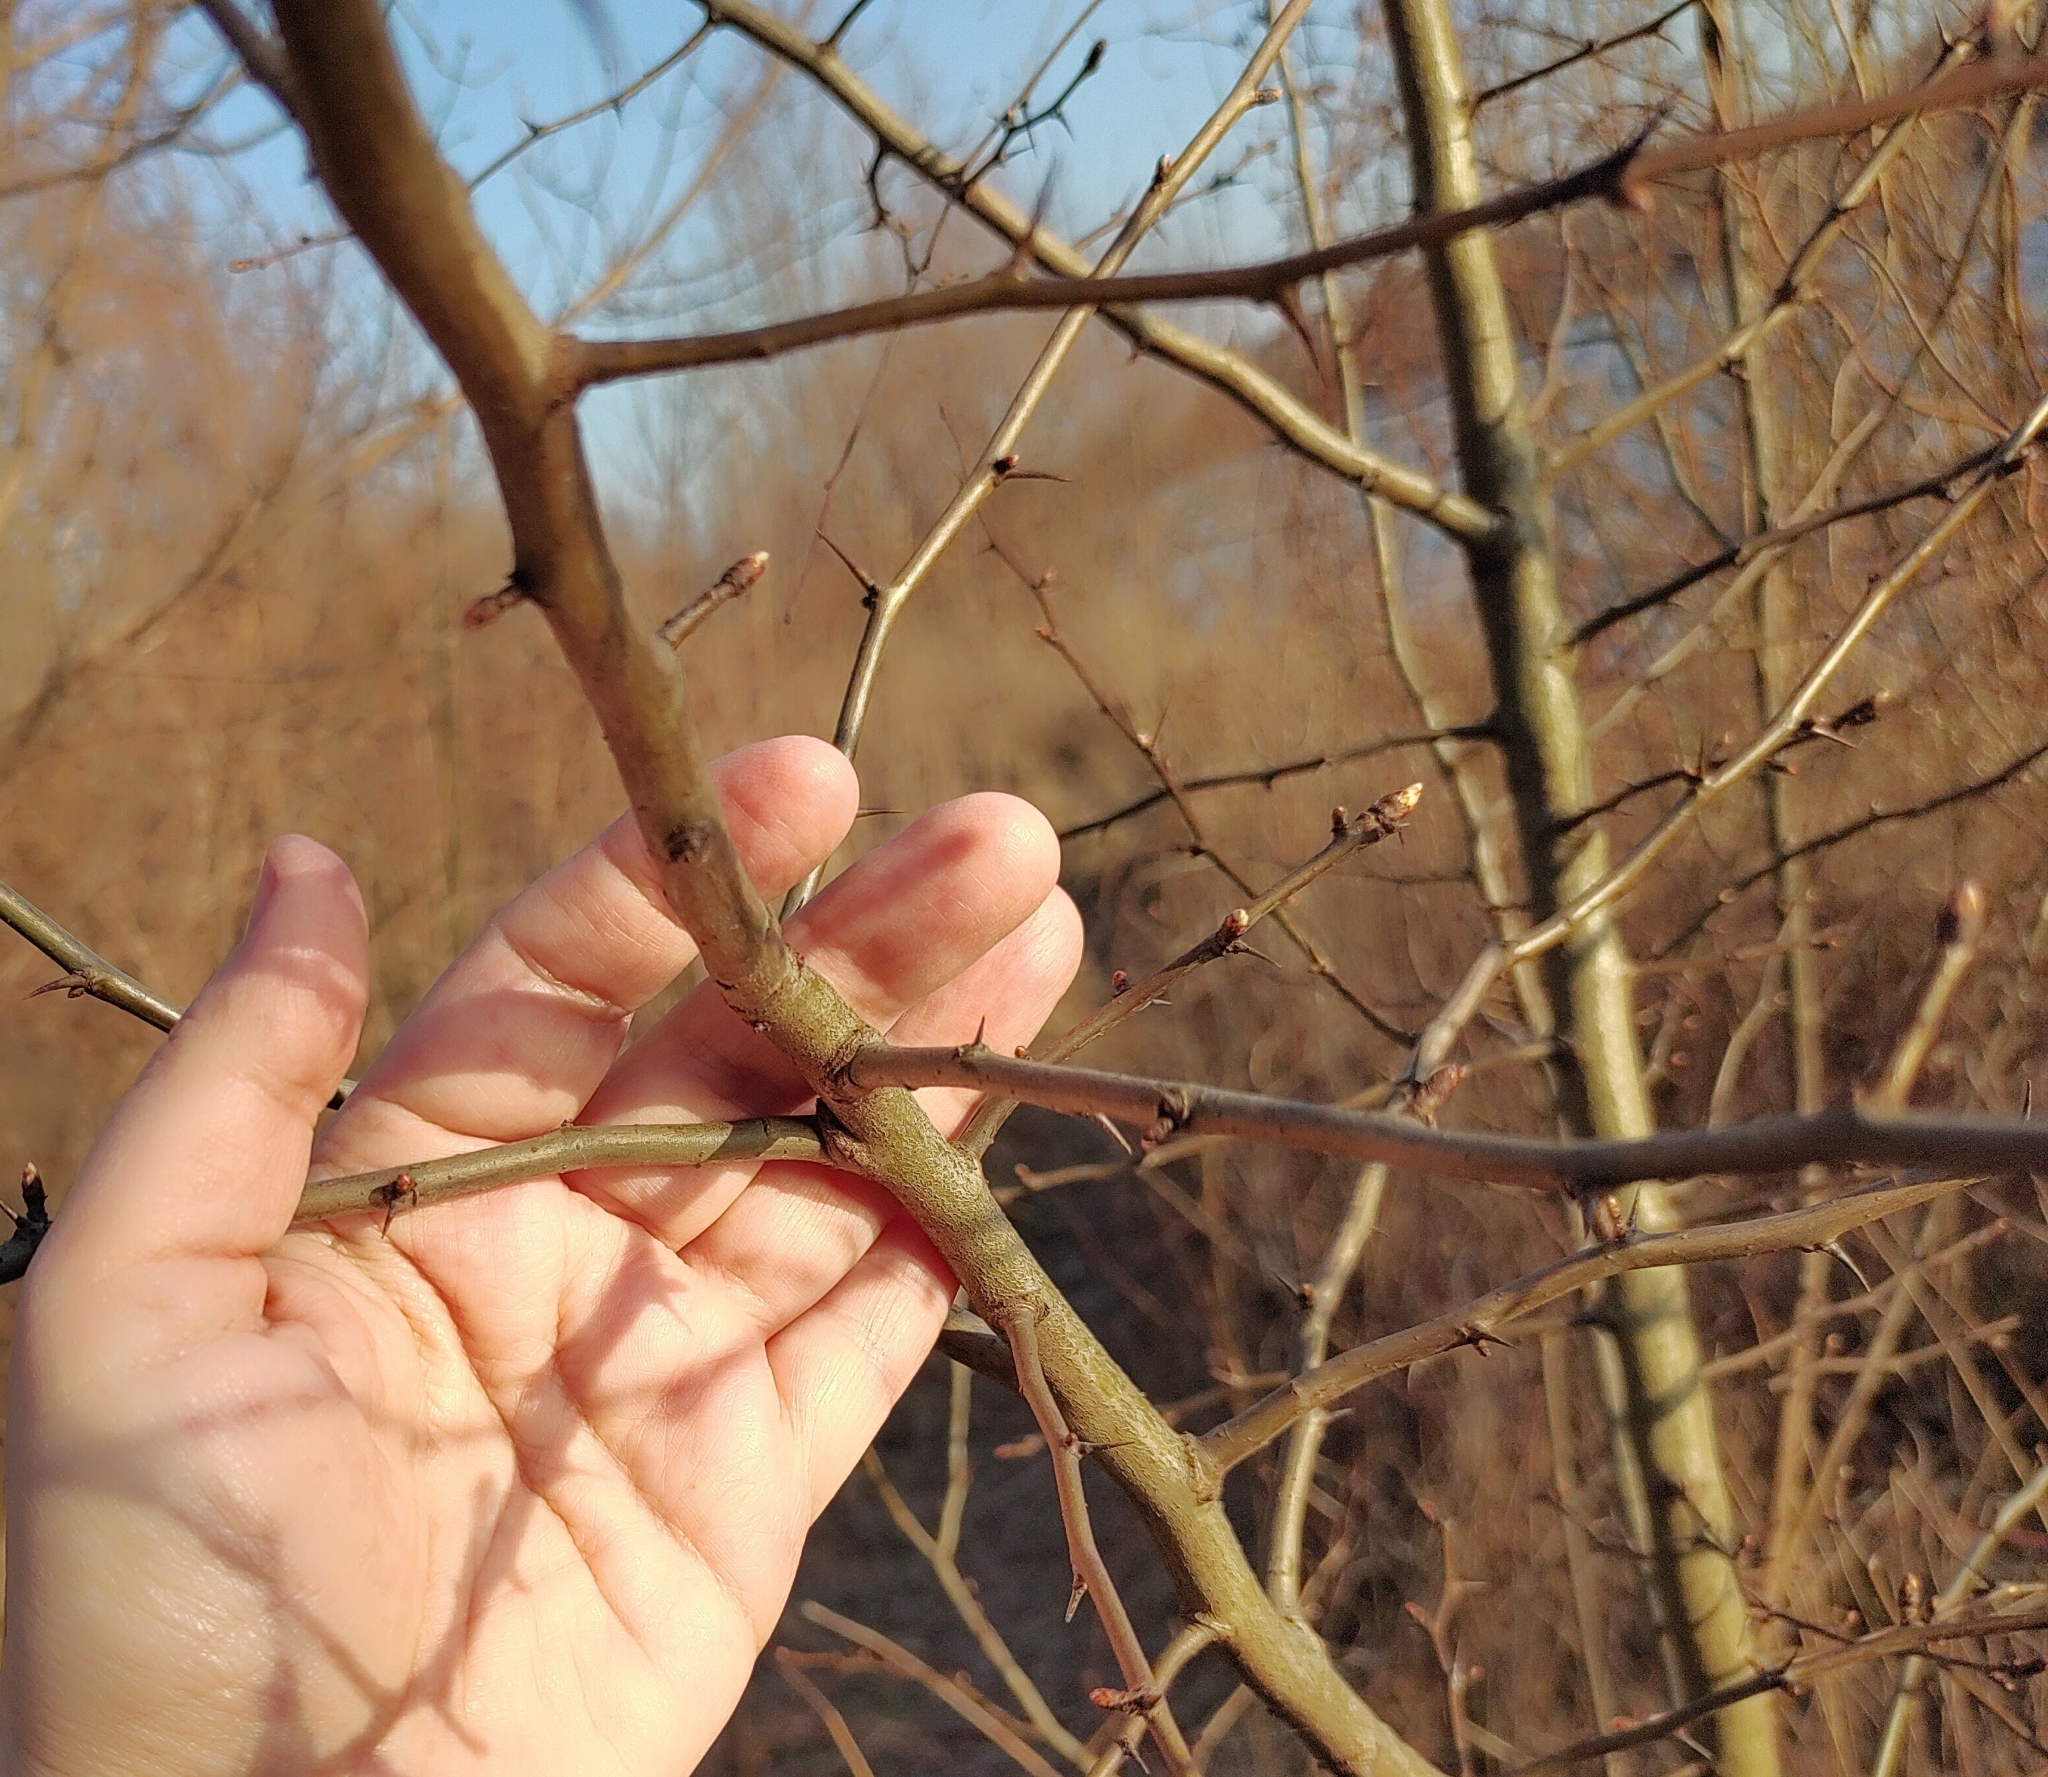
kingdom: Plantae
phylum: Tracheophyta
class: Magnoliopsida
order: Rosales
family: Rosaceae
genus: Crataegus
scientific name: Crataegus
